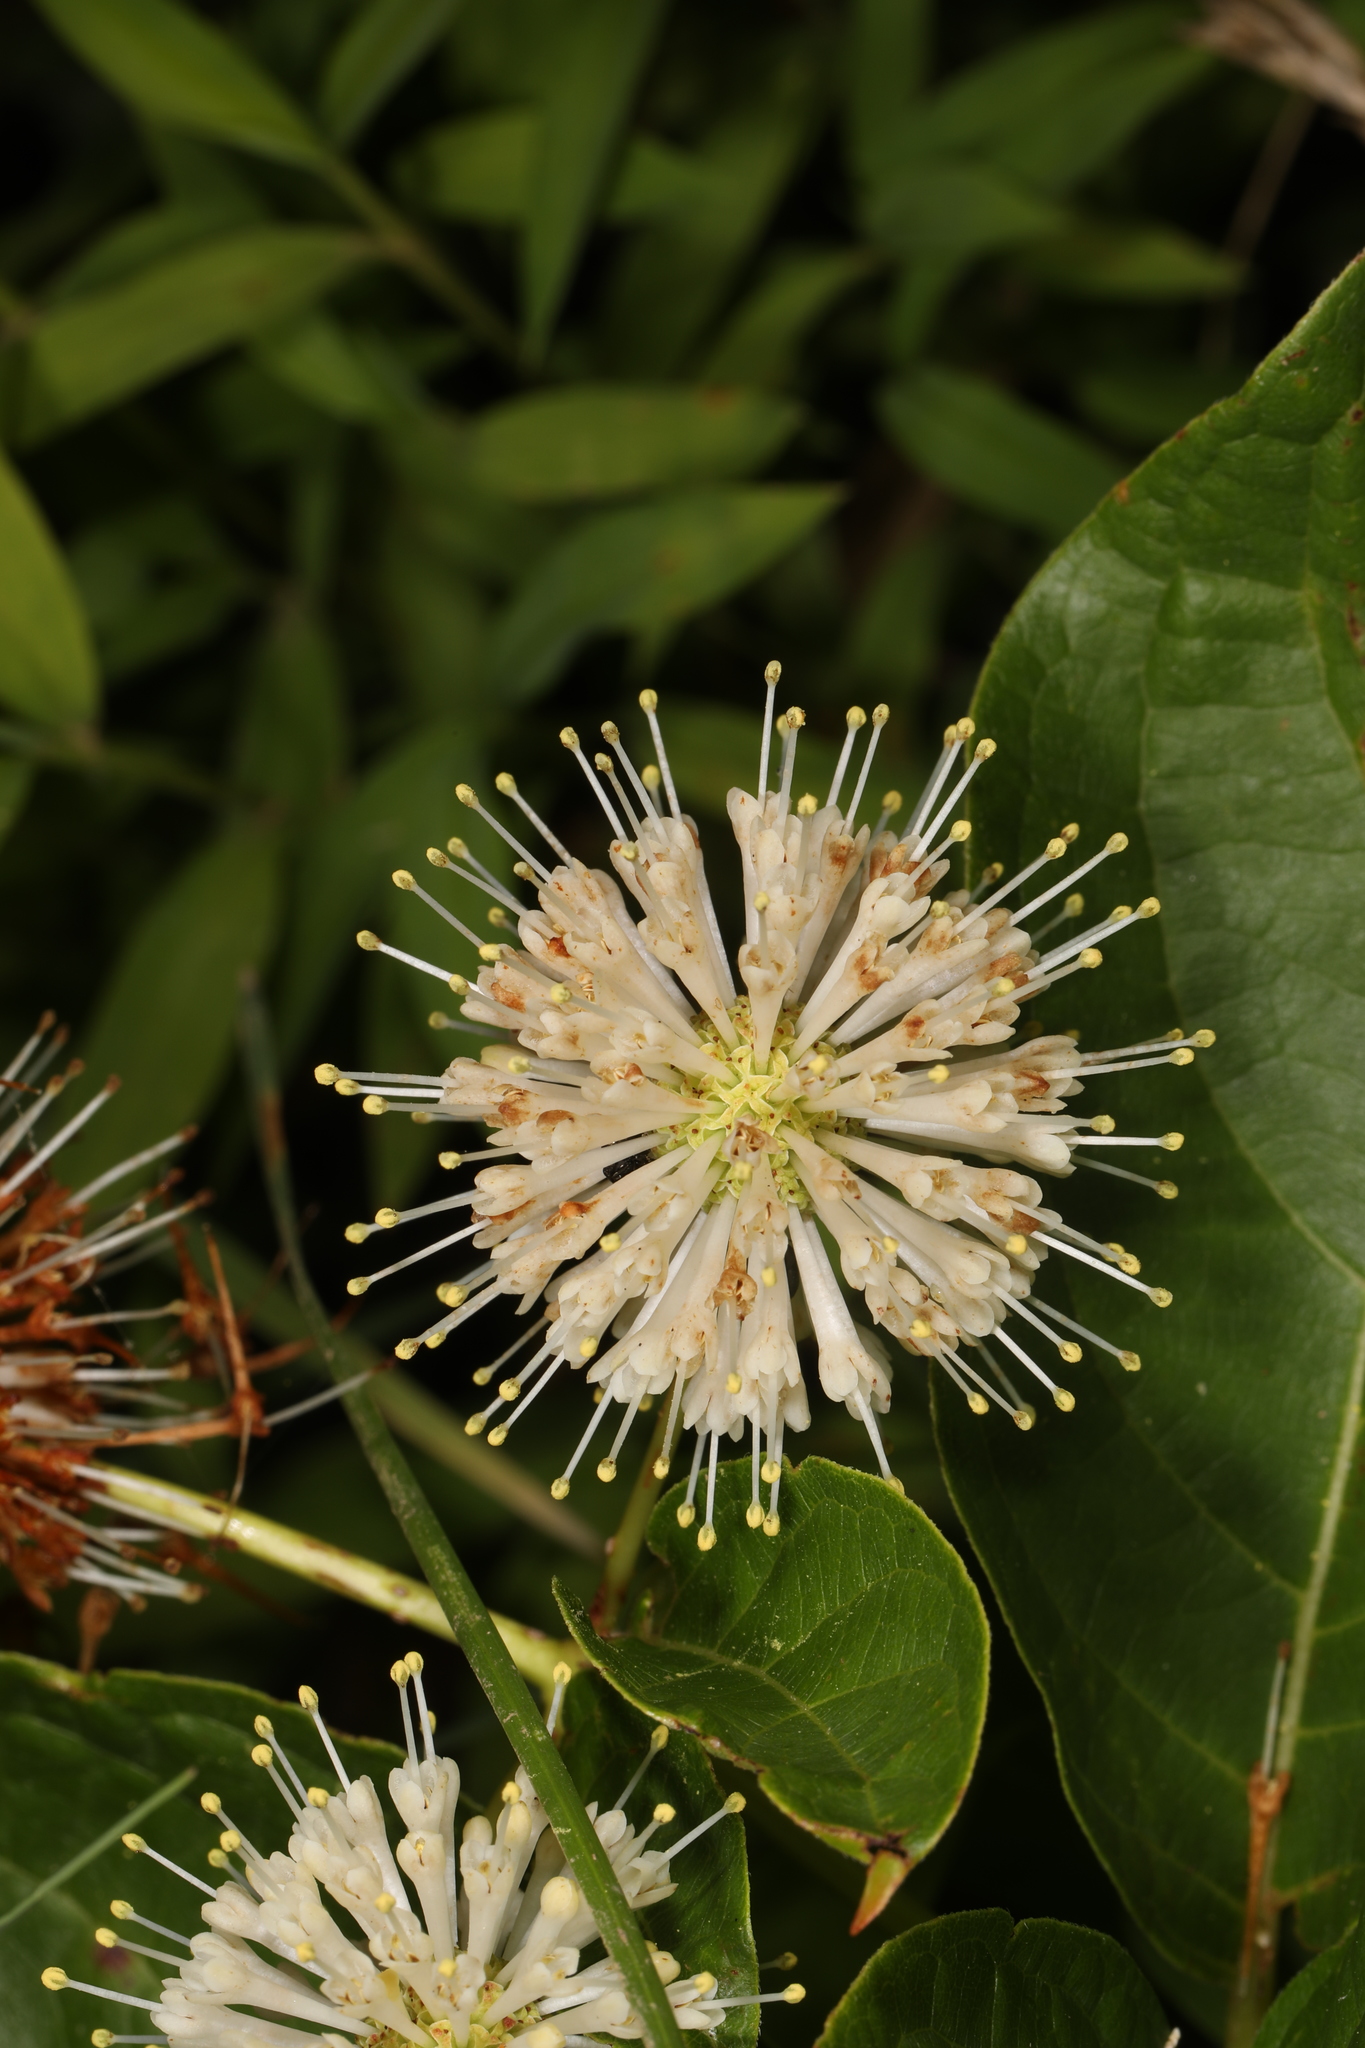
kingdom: Plantae
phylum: Tracheophyta
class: Magnoliopsida
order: Gentianales
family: Rubiaceae
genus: Cephalanthus
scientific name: Cephalanthus occidentalis
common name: Button-willow
